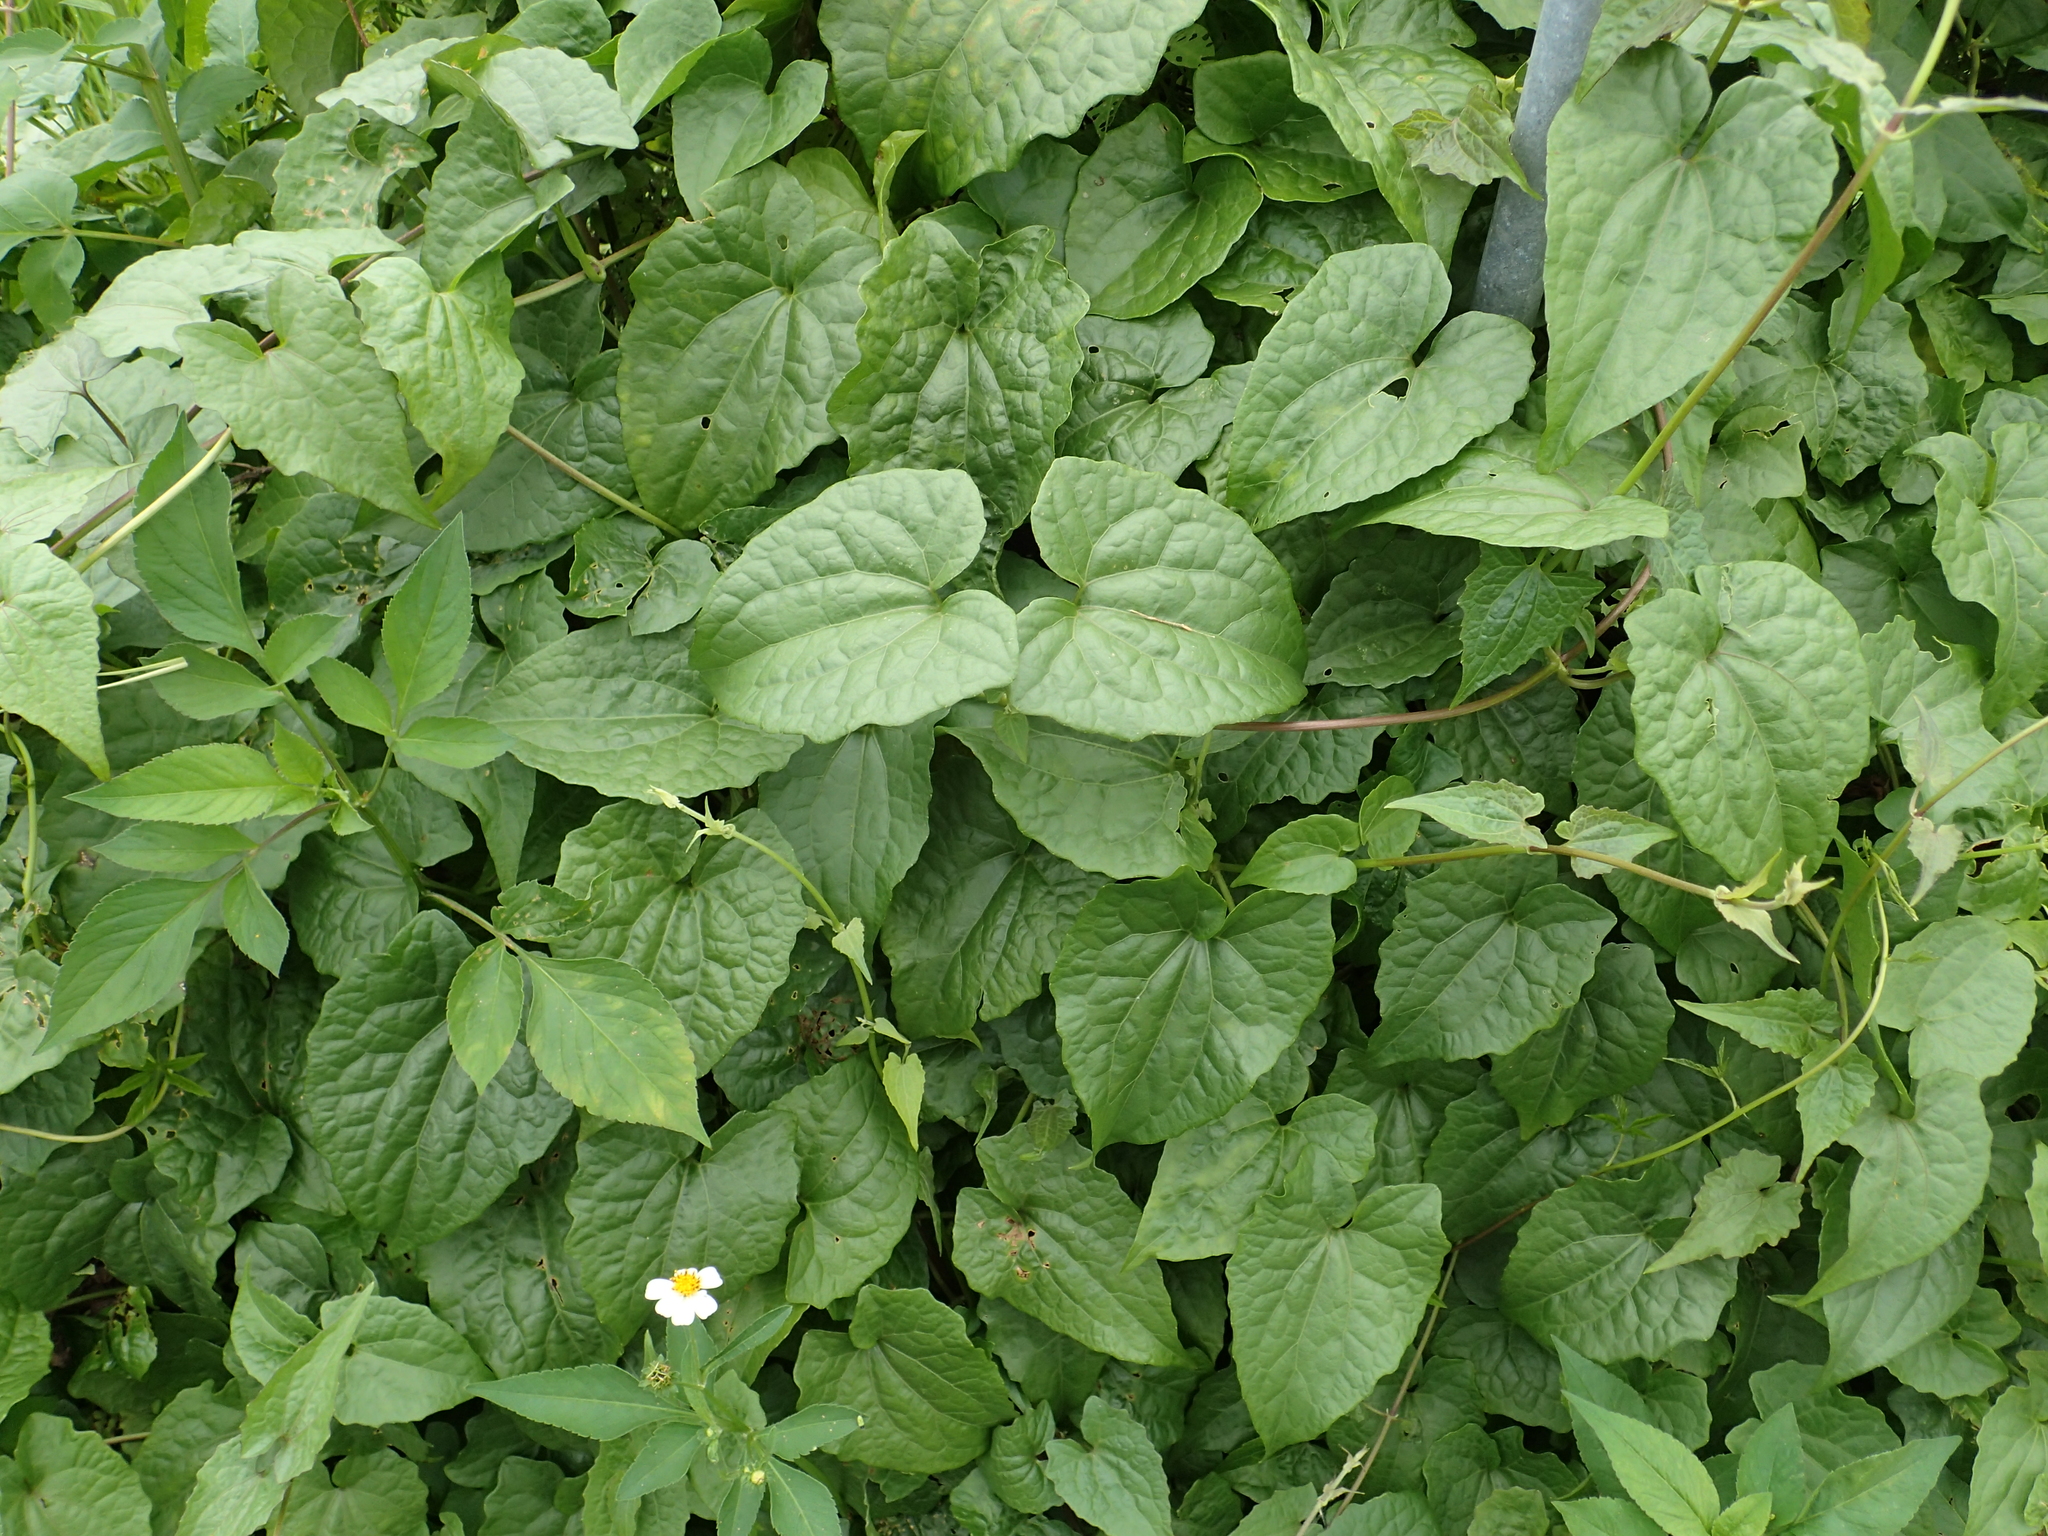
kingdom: Plantae
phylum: Tracheophyta
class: Magnoliopsida
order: Asterales
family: Asteraceae
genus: Mikania
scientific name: Mikania micrantha
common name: Mile-a-minute
